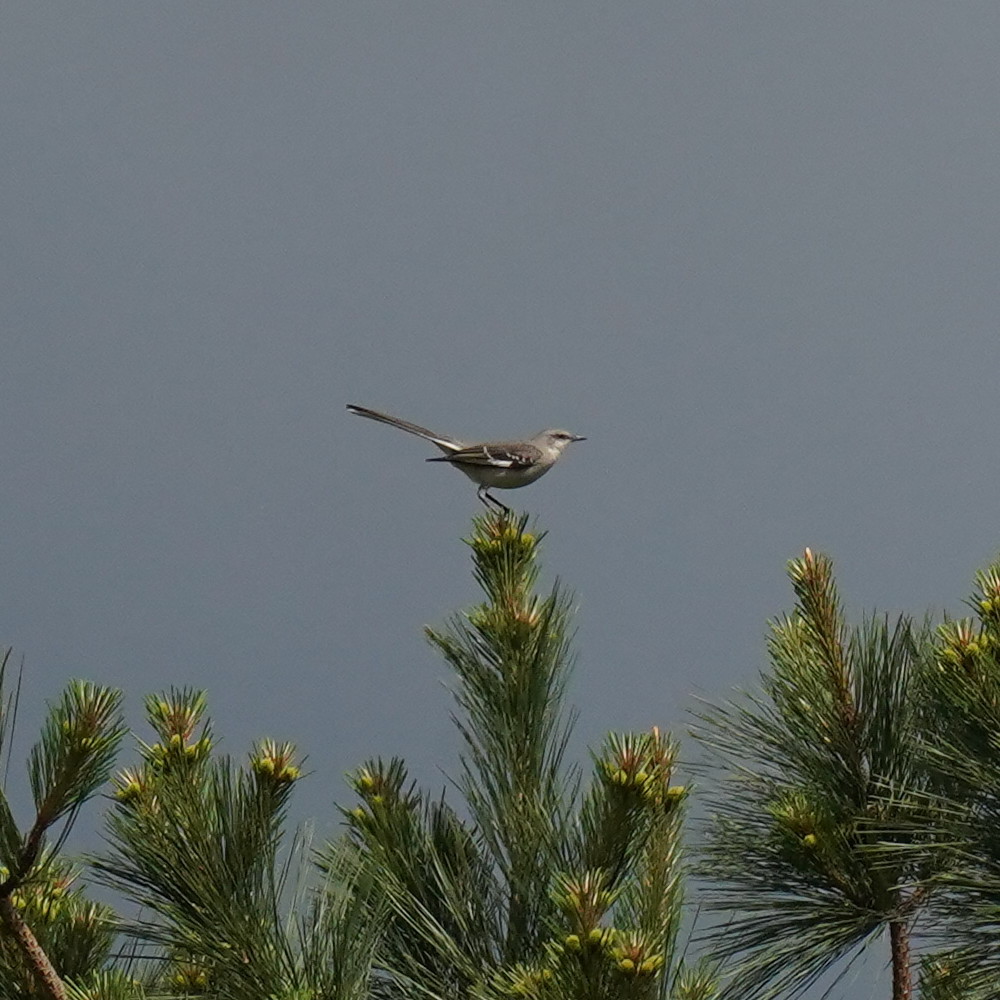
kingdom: Animalia
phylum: Chordata
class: Aves
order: Passeriformes
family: Mimidae
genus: Mimus
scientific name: Mimus polyglottos
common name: Northern mockingbird
